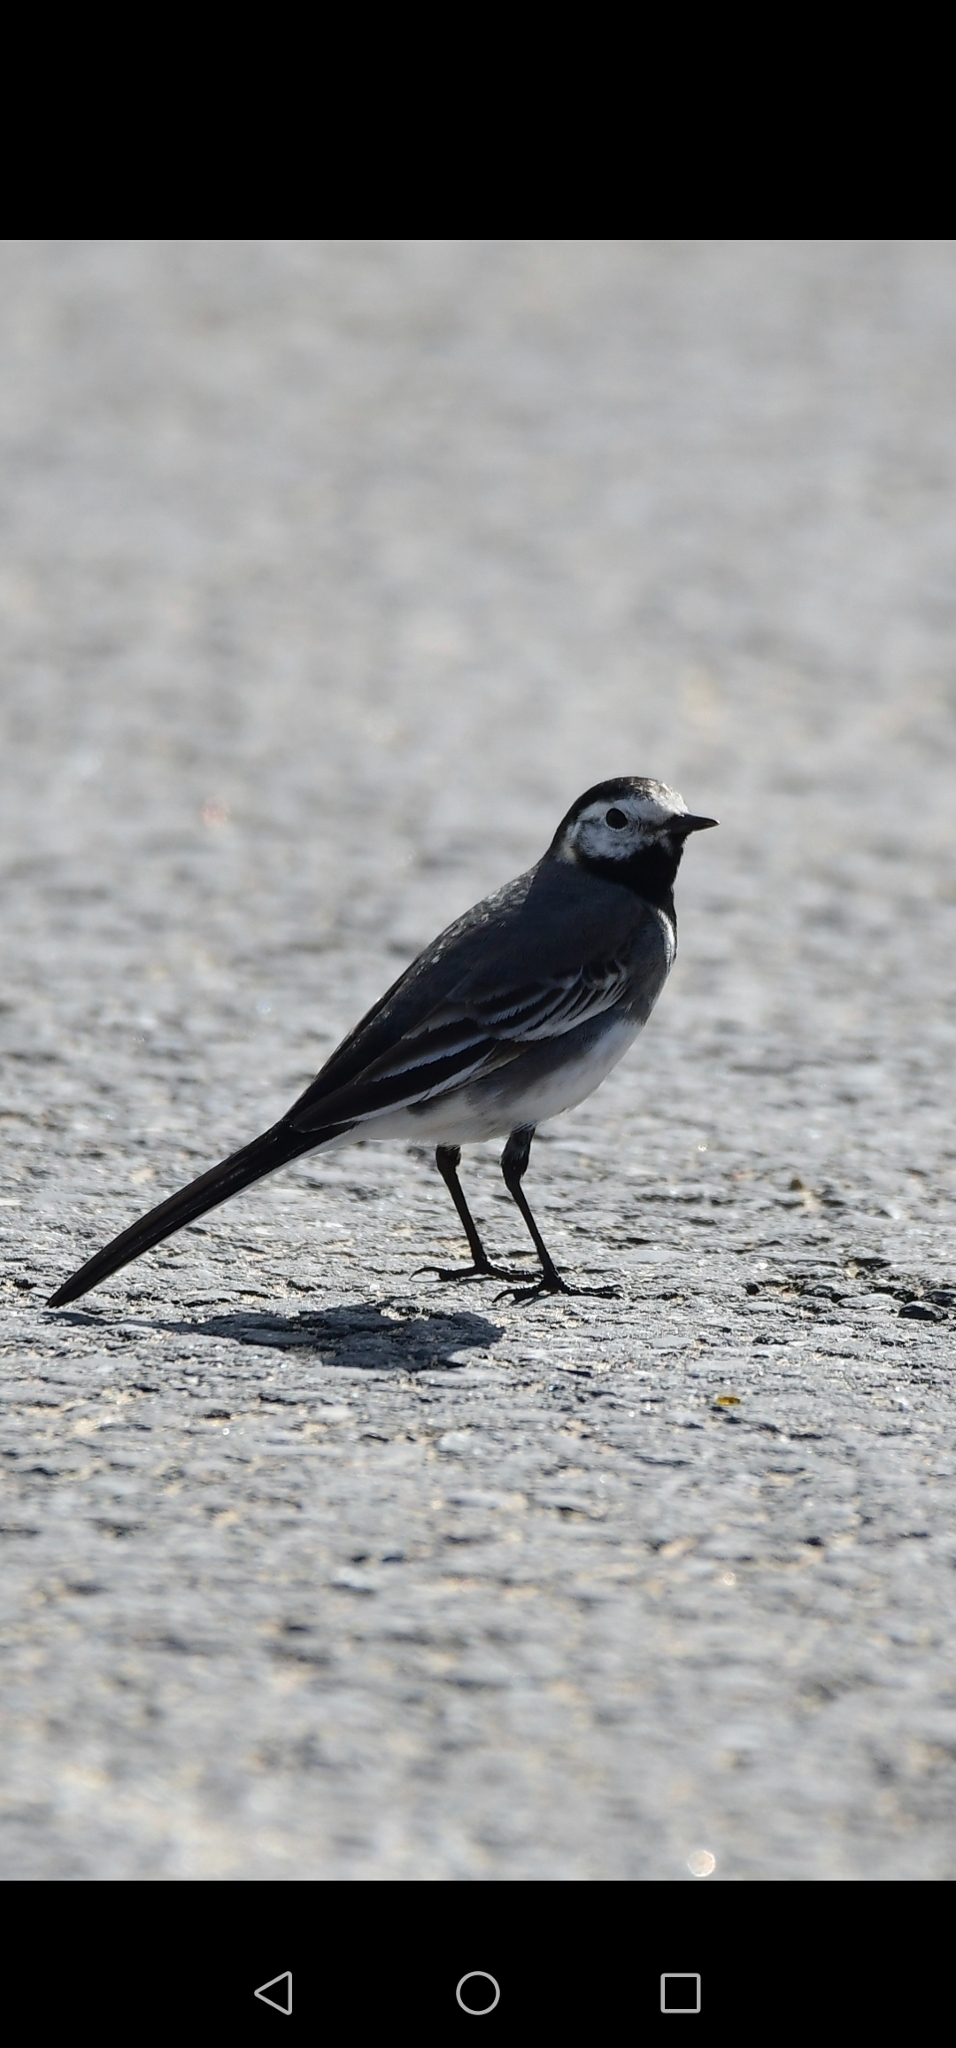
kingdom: Animalia
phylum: Chordata
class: Aves
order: Passeriformes
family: Motacillidae
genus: Motacilla
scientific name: Motacilla alba
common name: White wagtail
